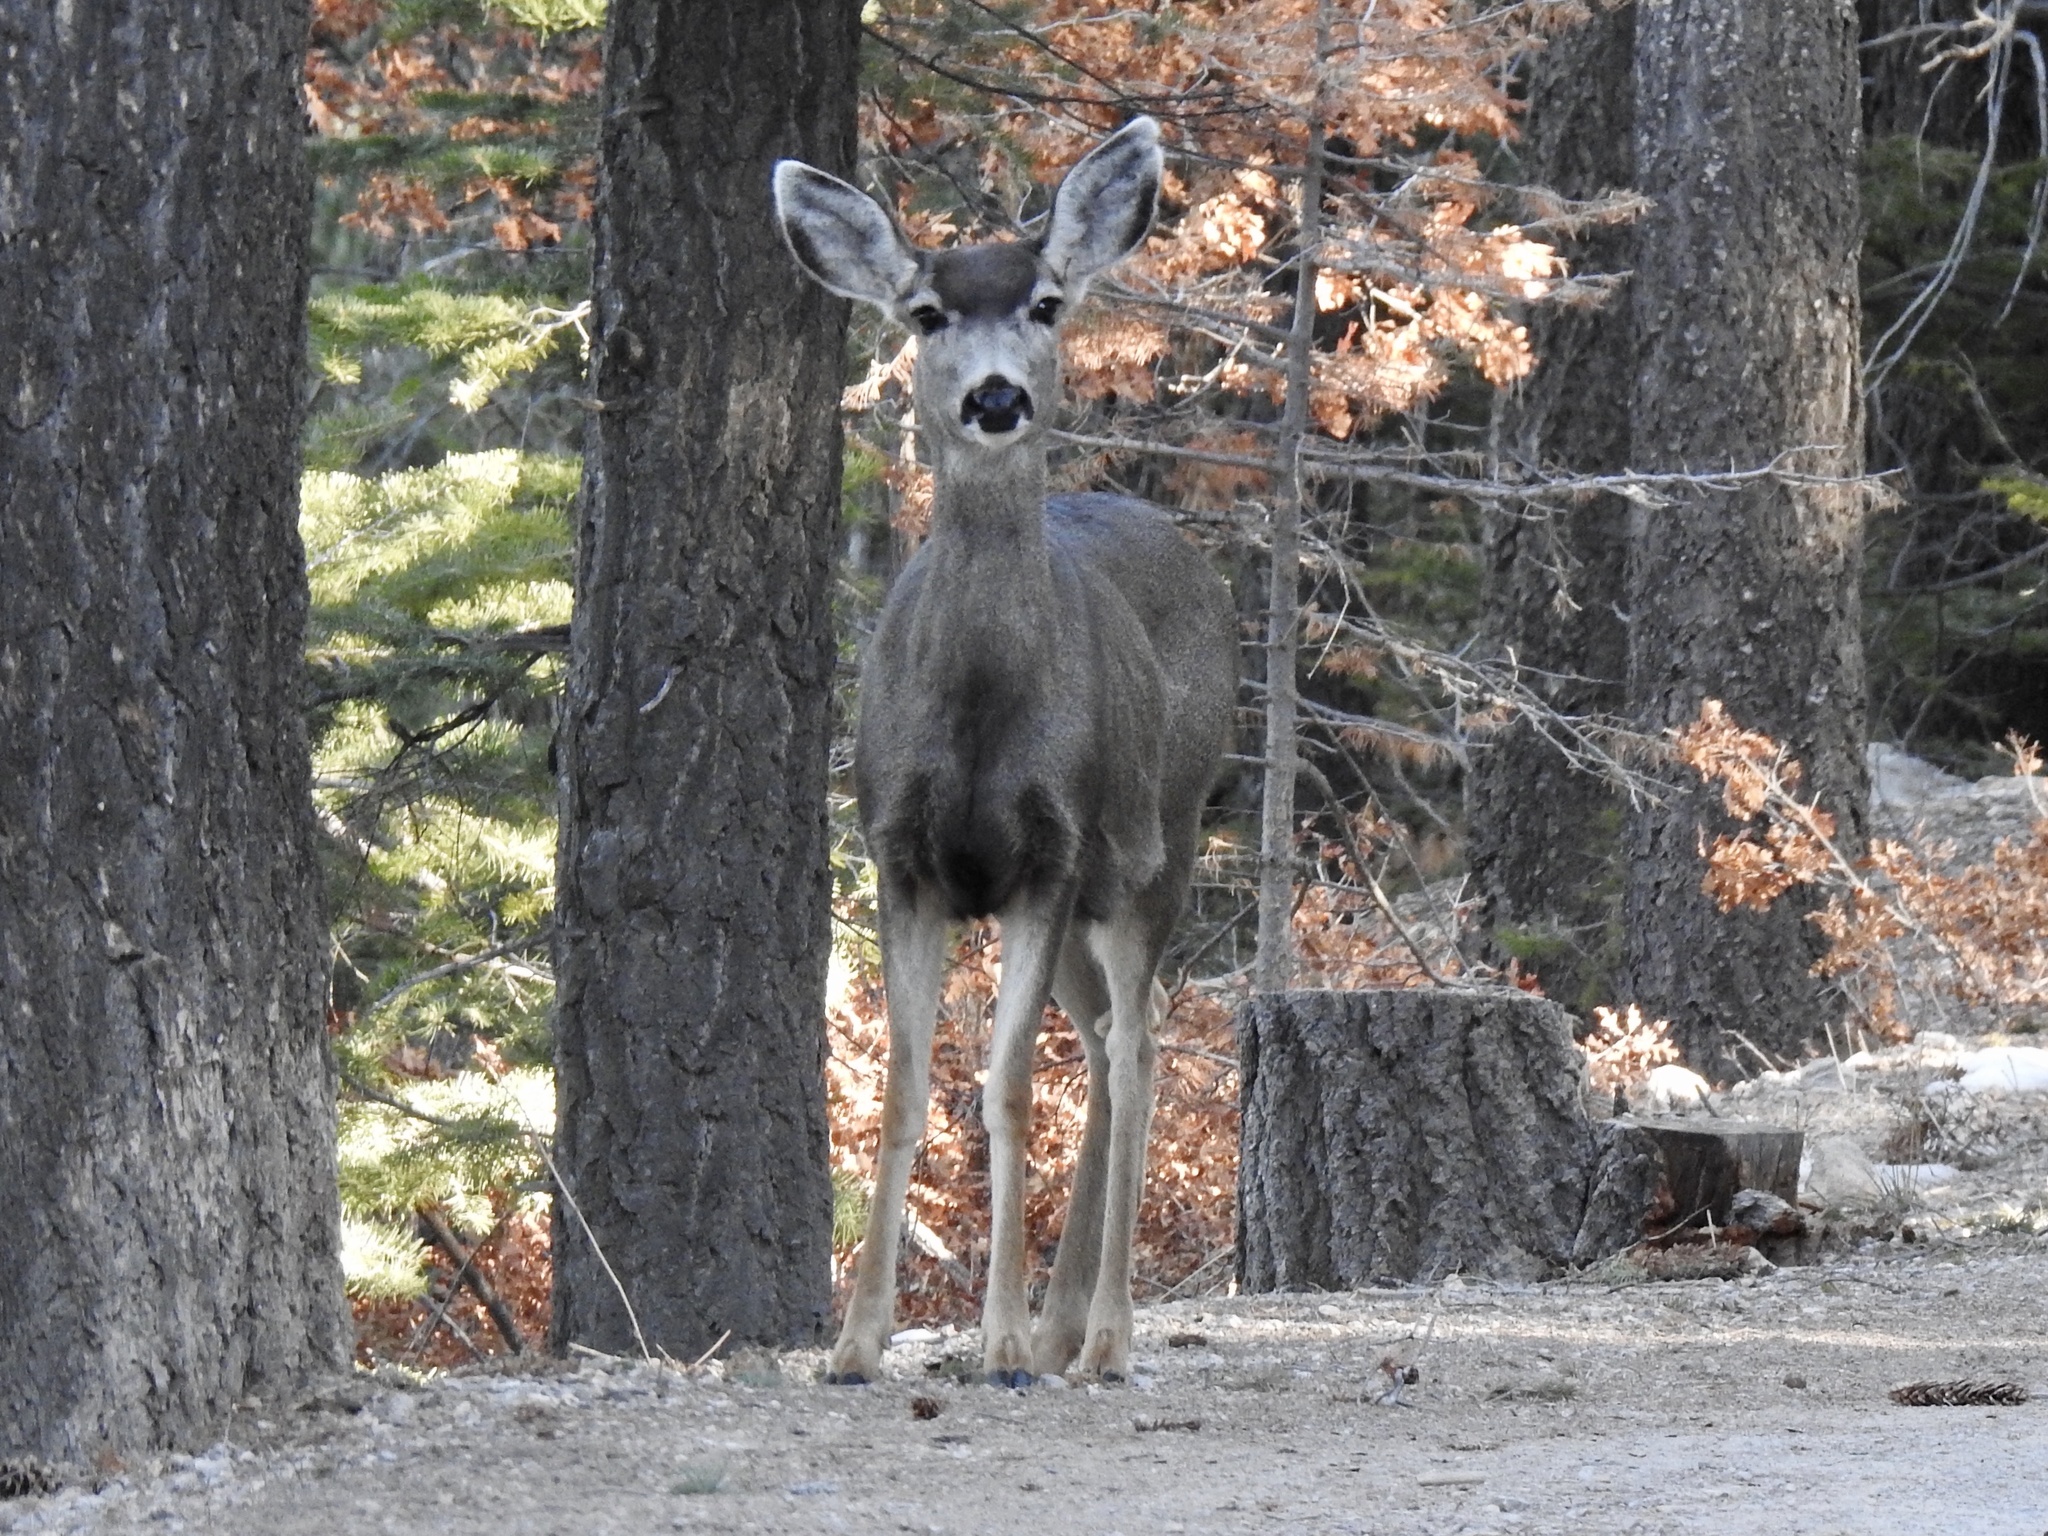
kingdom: Animalia
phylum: Chordata
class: Mammalia
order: Artiodactyla
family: Cervidae
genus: Odocoileus
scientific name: Odocoileus hemionus
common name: Mule deer
